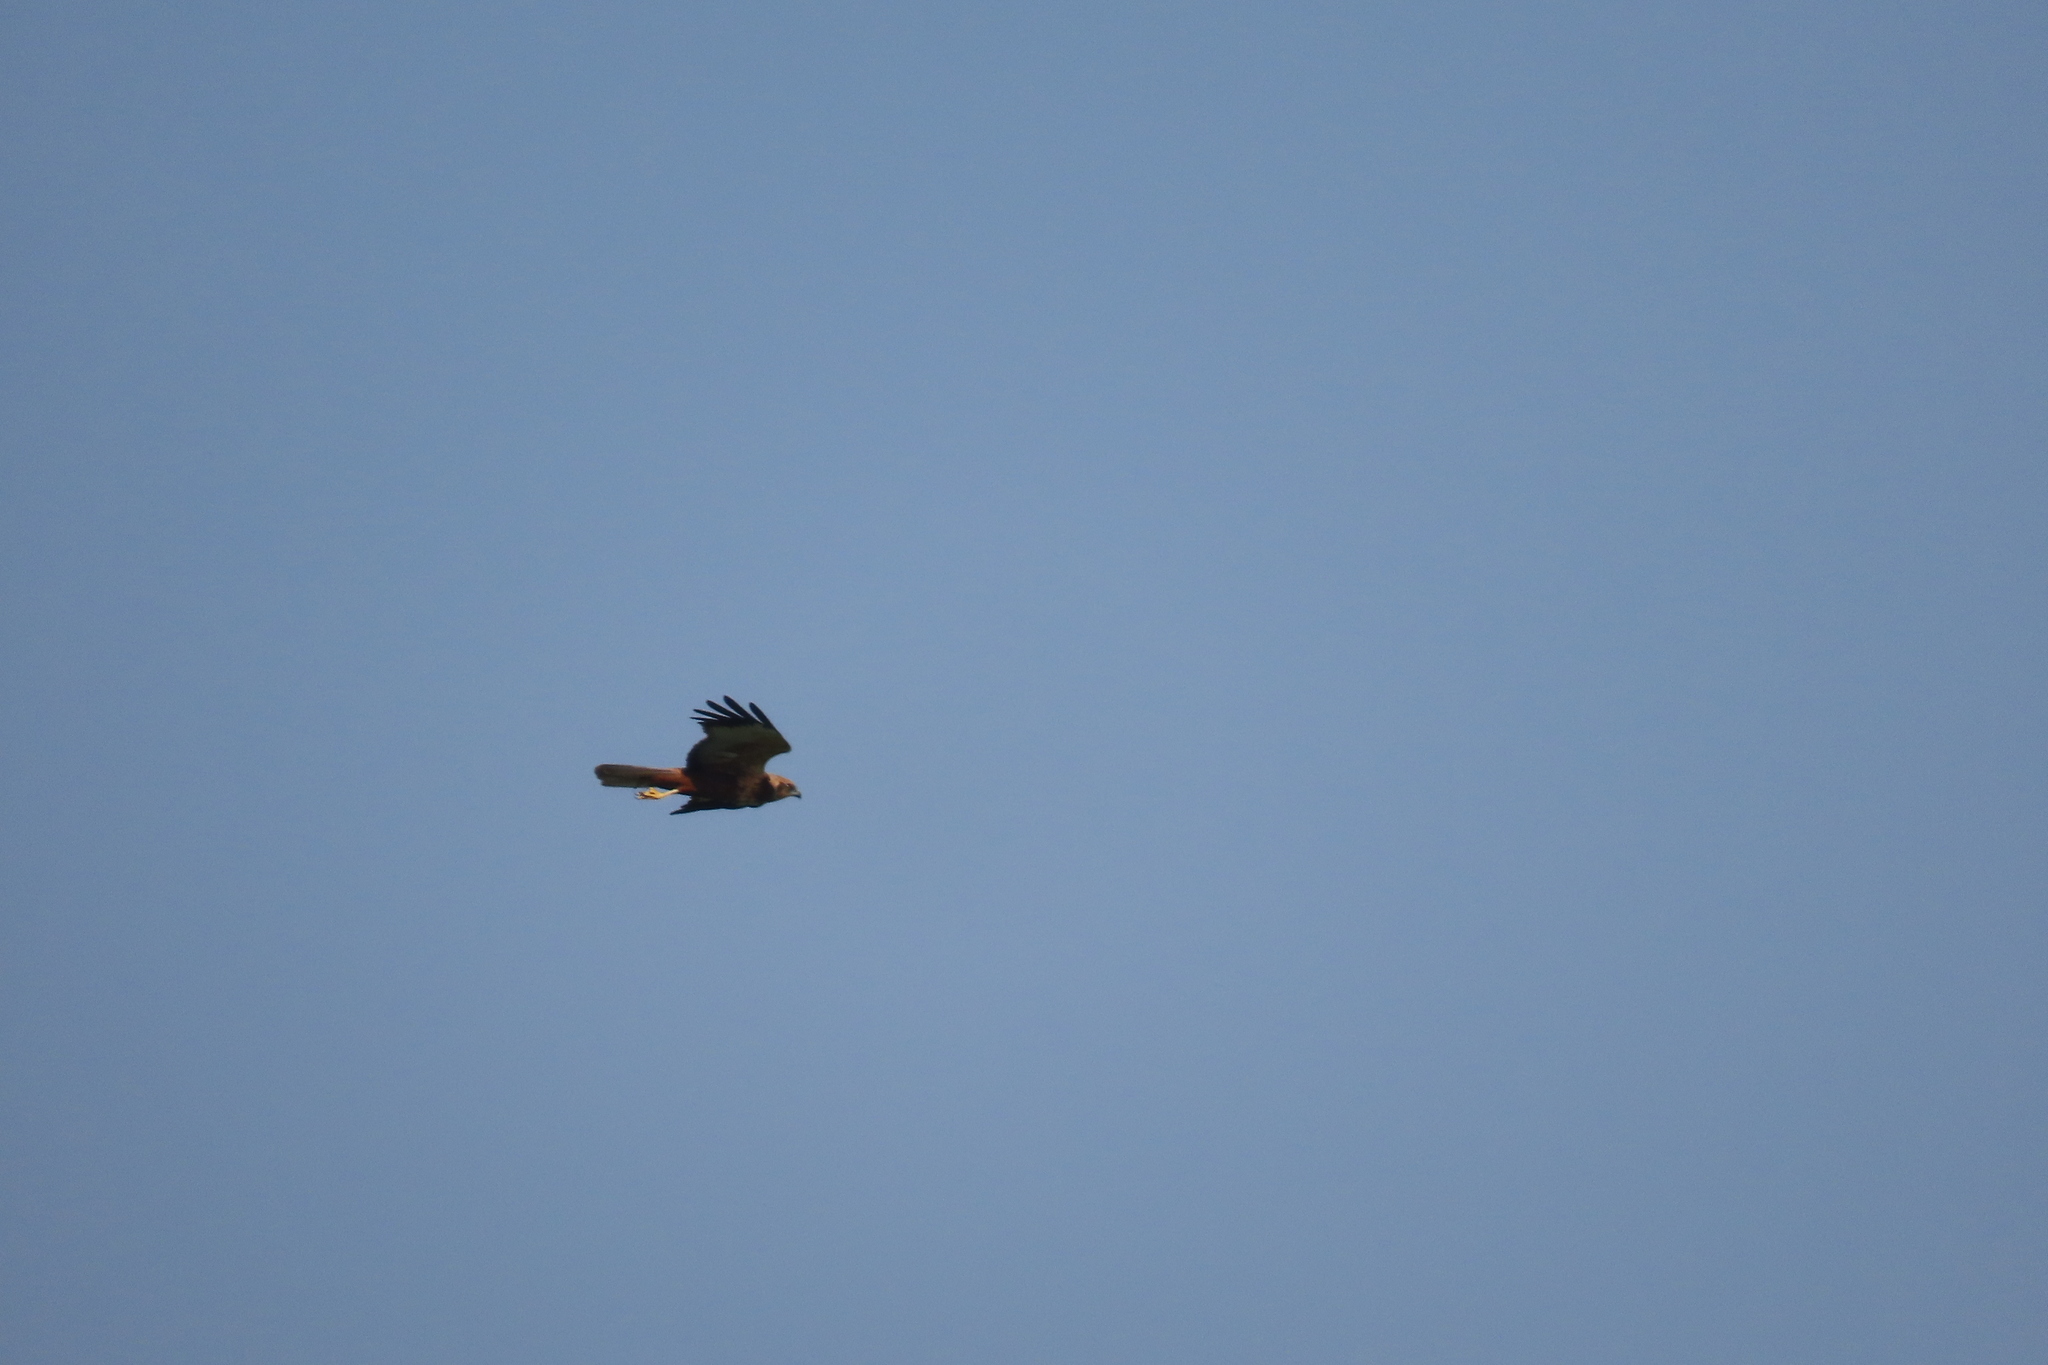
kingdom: Animalia
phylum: Chordata
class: Aves
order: Accipitriformes
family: Accipitridae
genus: Circus
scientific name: Circus aeruginosus
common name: Western marsh harrier
